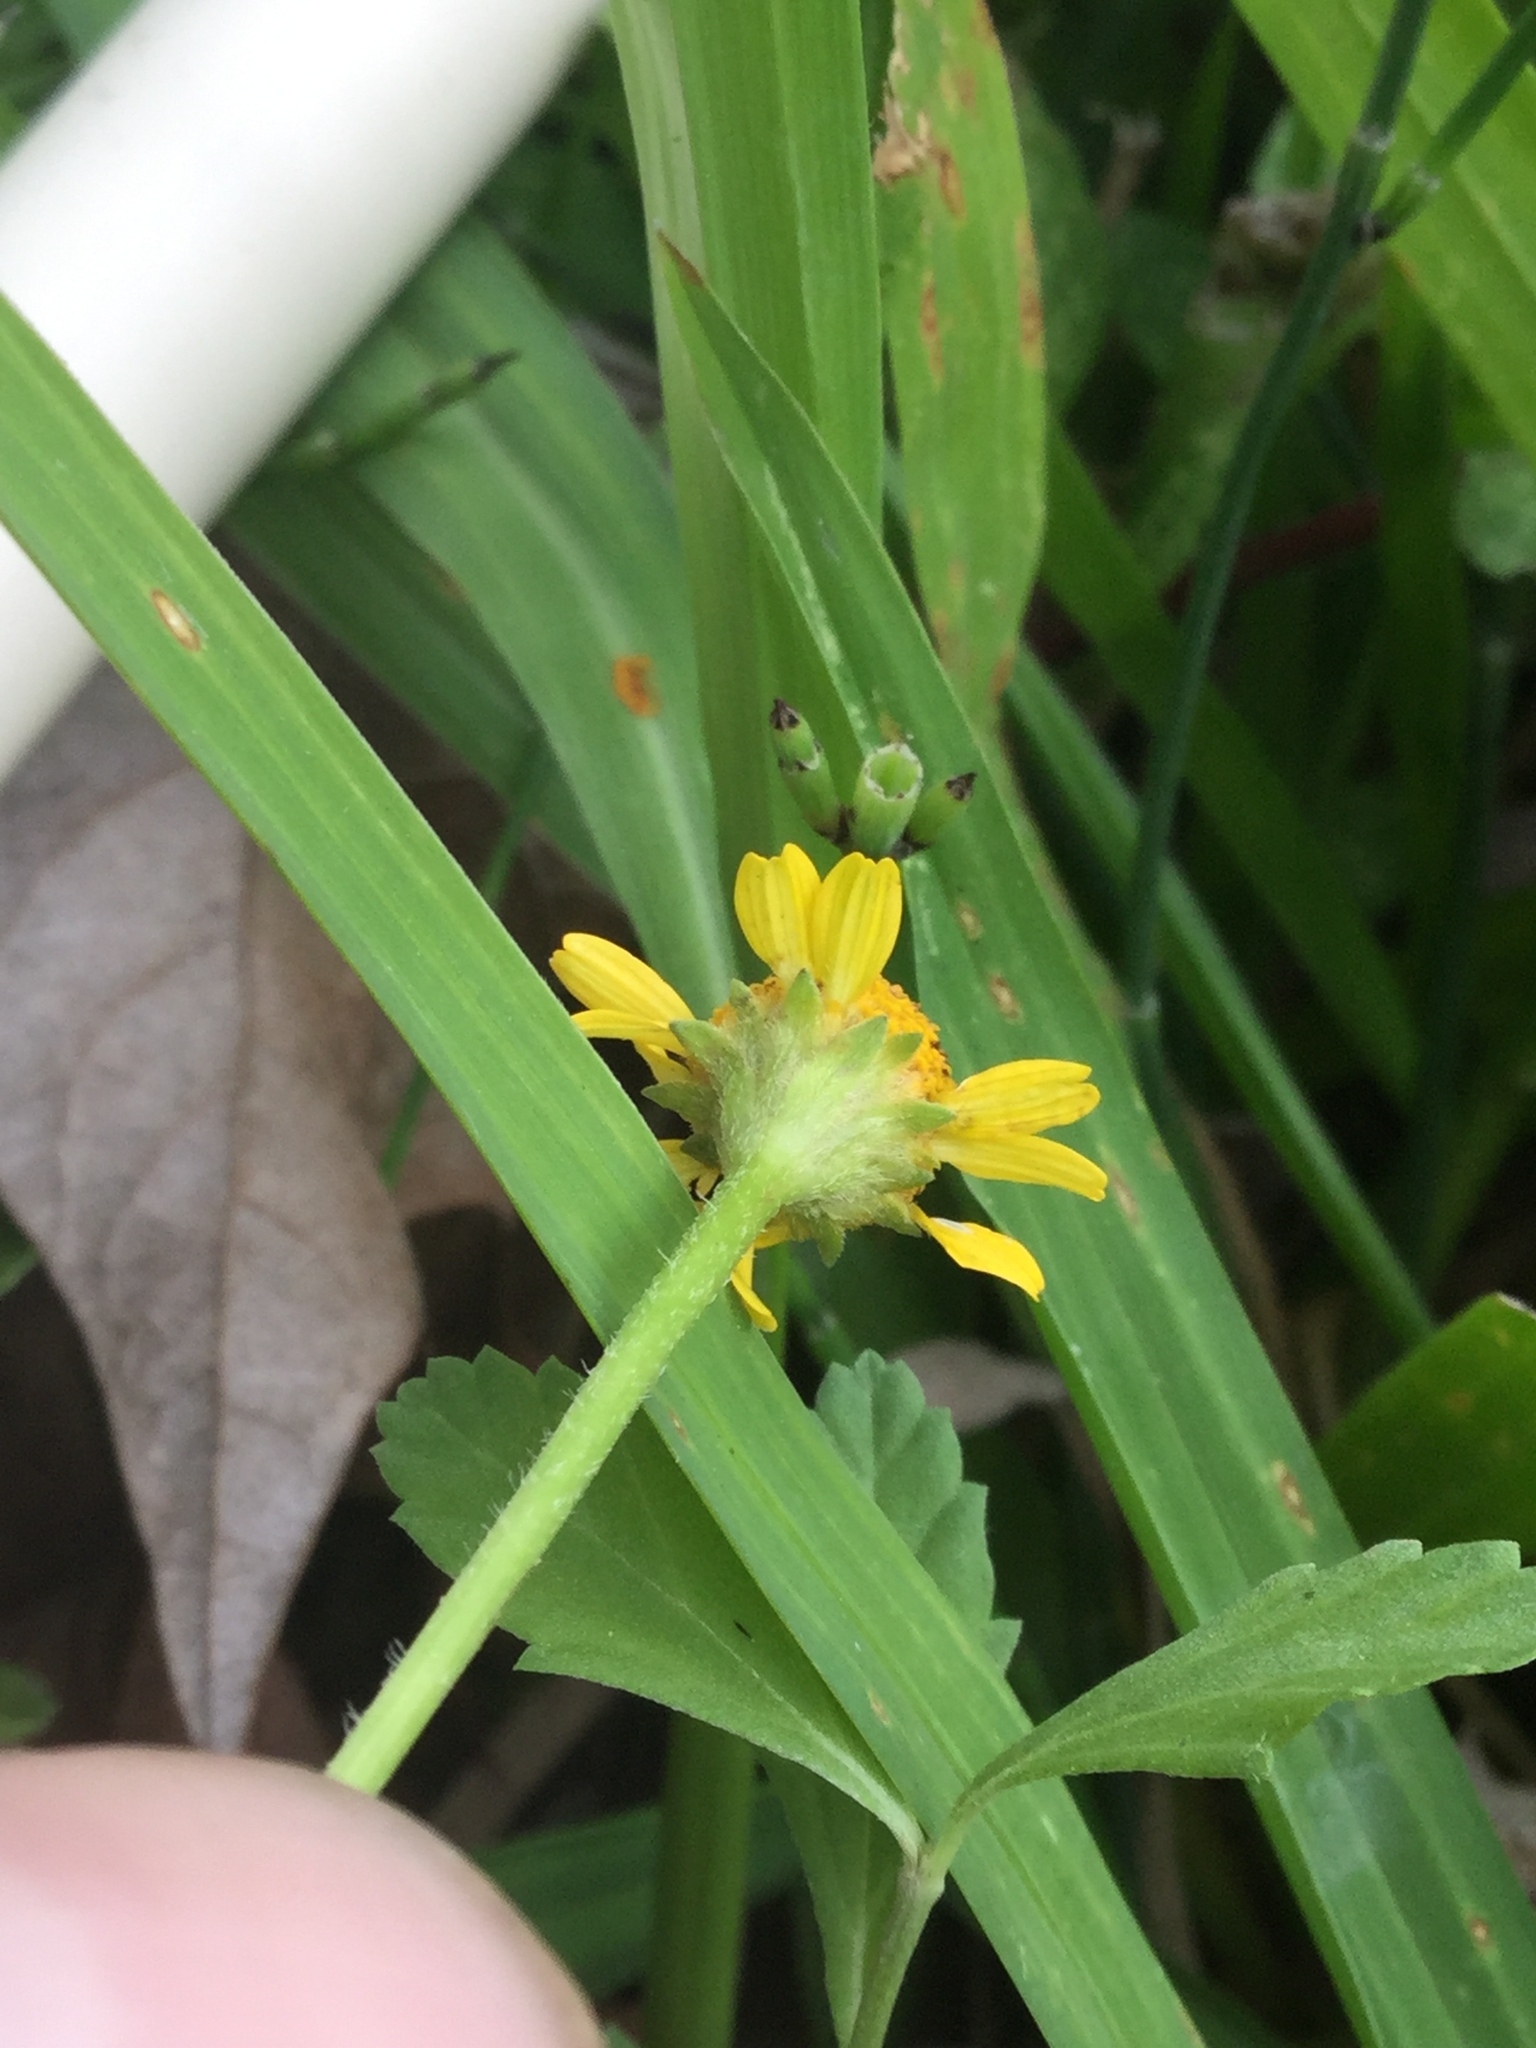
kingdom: Plantae
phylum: Tracheophyta
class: Magnoliopsida
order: Asterales
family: Asteraceae
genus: Acmella
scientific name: Acmella repens
